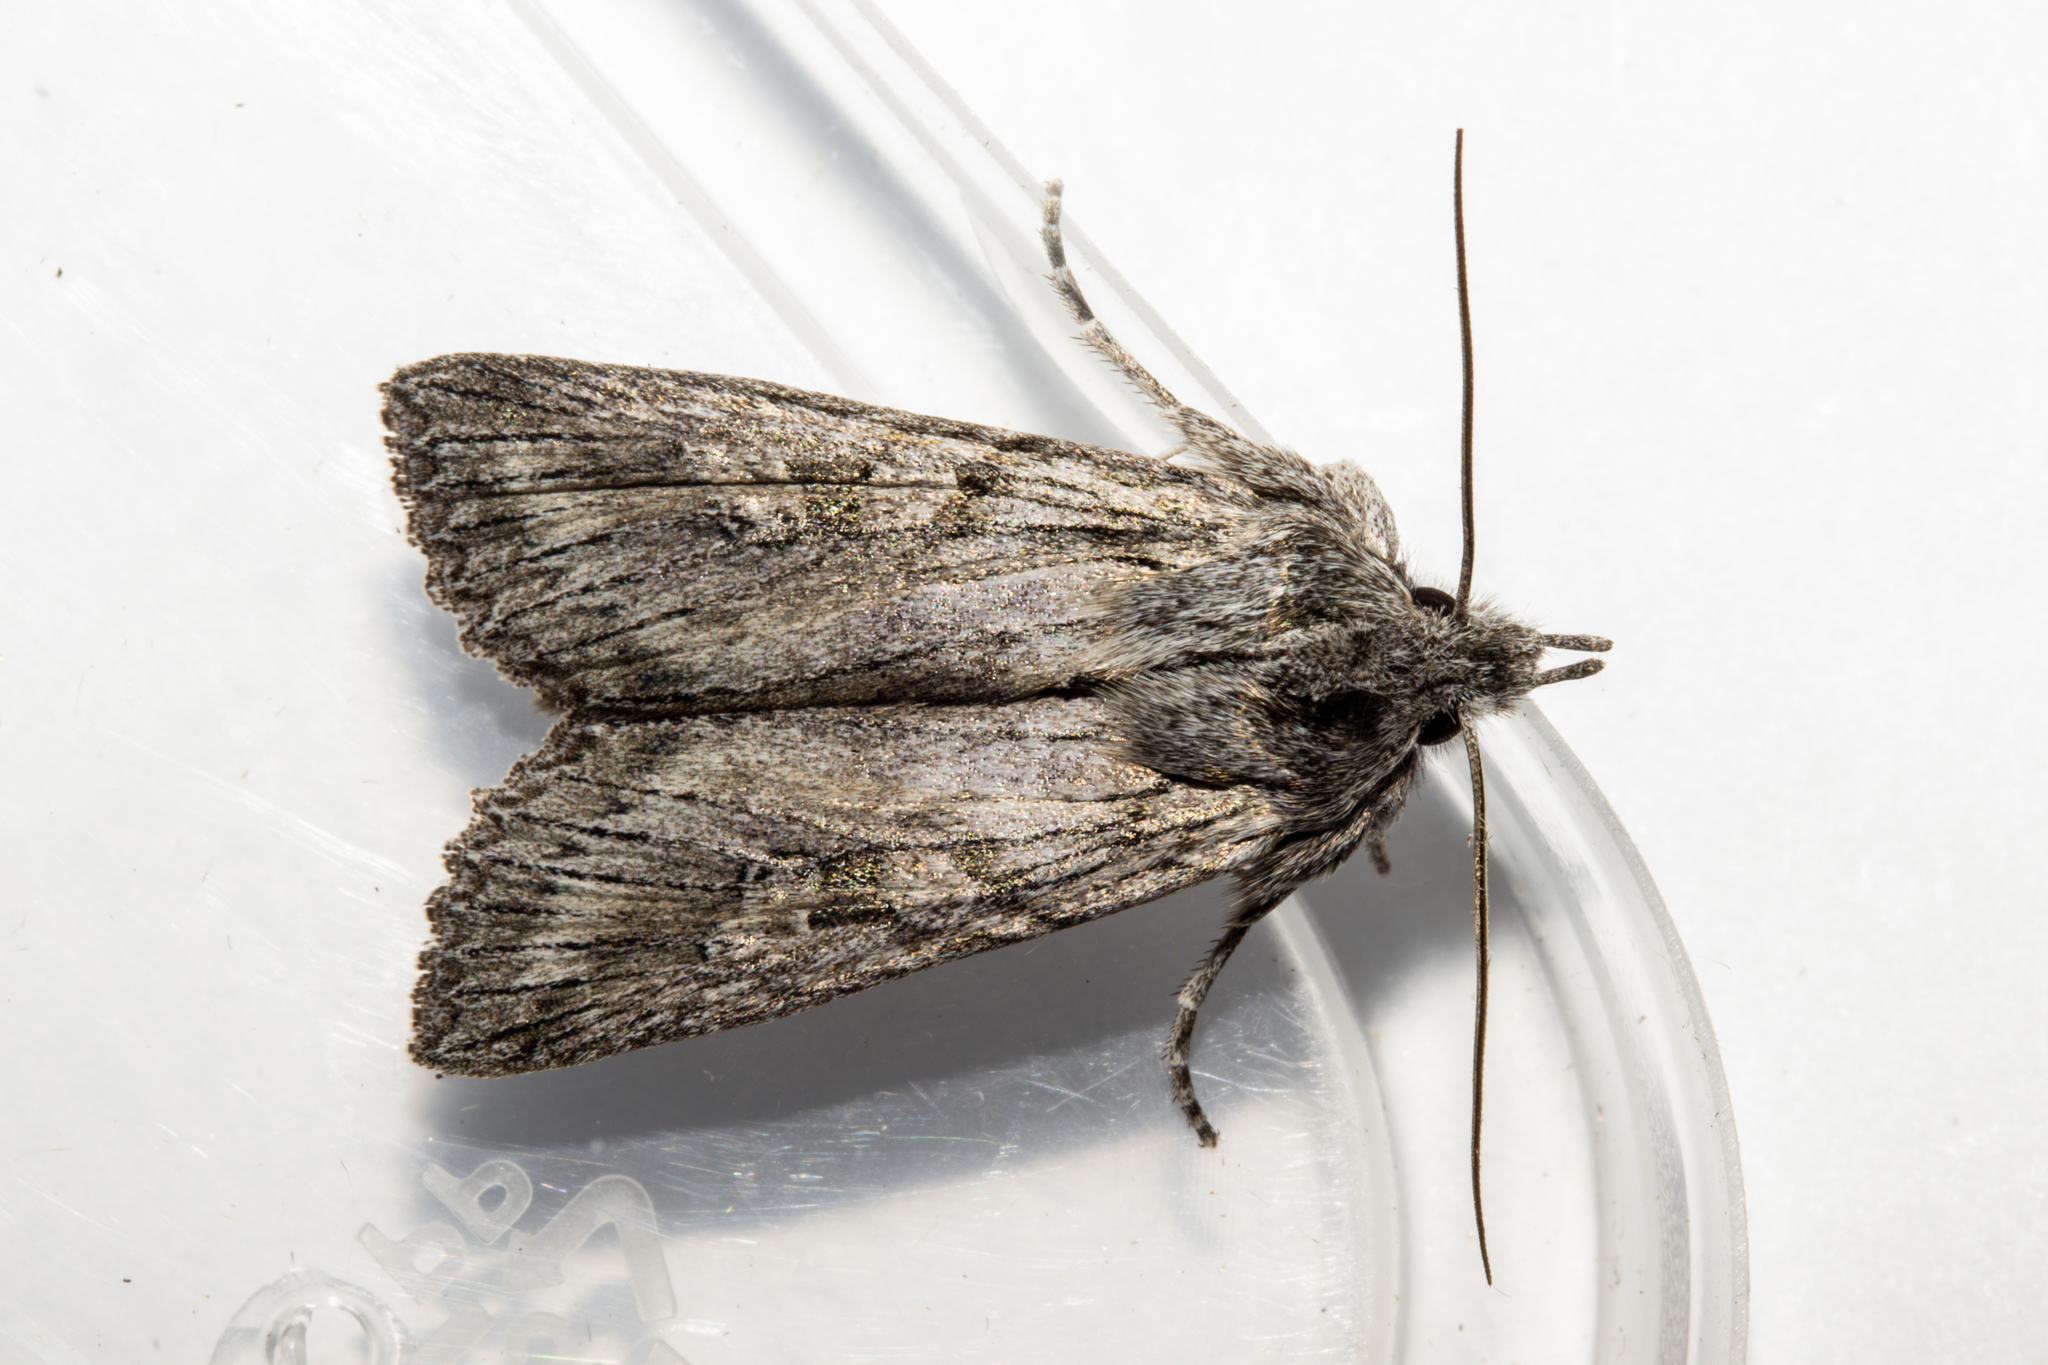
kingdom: Animalia
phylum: Arthropoda
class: Insecta
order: Lepidoptera
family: Noctuidae
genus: Physetica
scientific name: Physetica phricias
